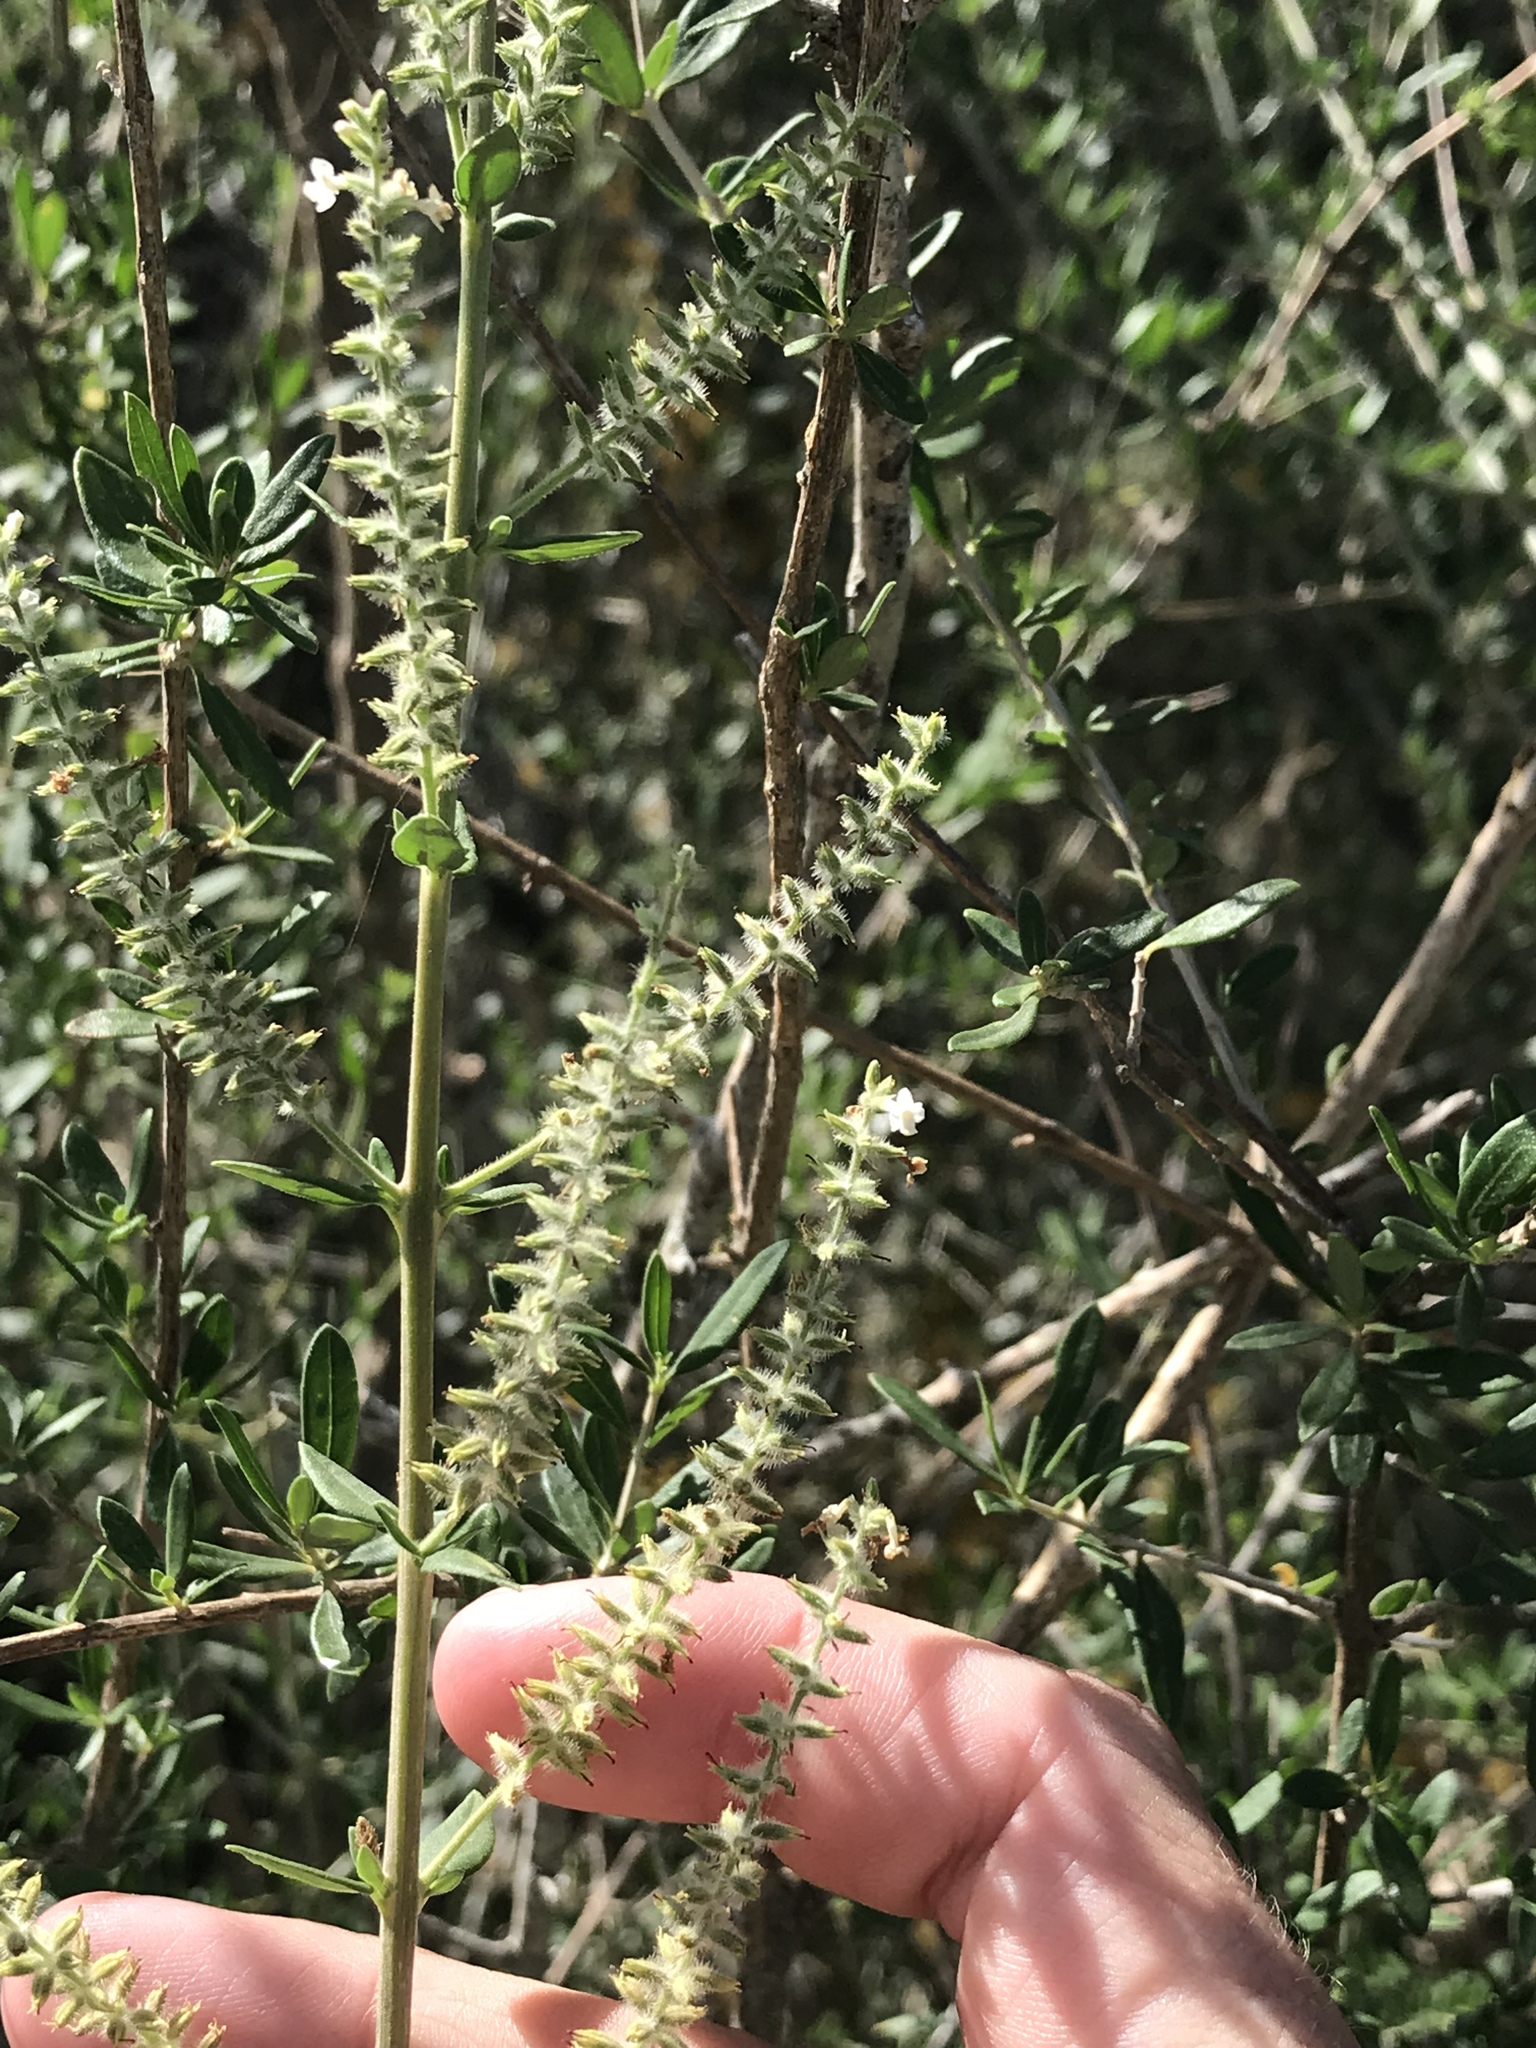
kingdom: Plantae
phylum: Tracheophyta
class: Magnoliopsida
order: Lamiales
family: Verbenaceae
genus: Aloysia
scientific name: Aloysia gratissima
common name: Common bee-brush
